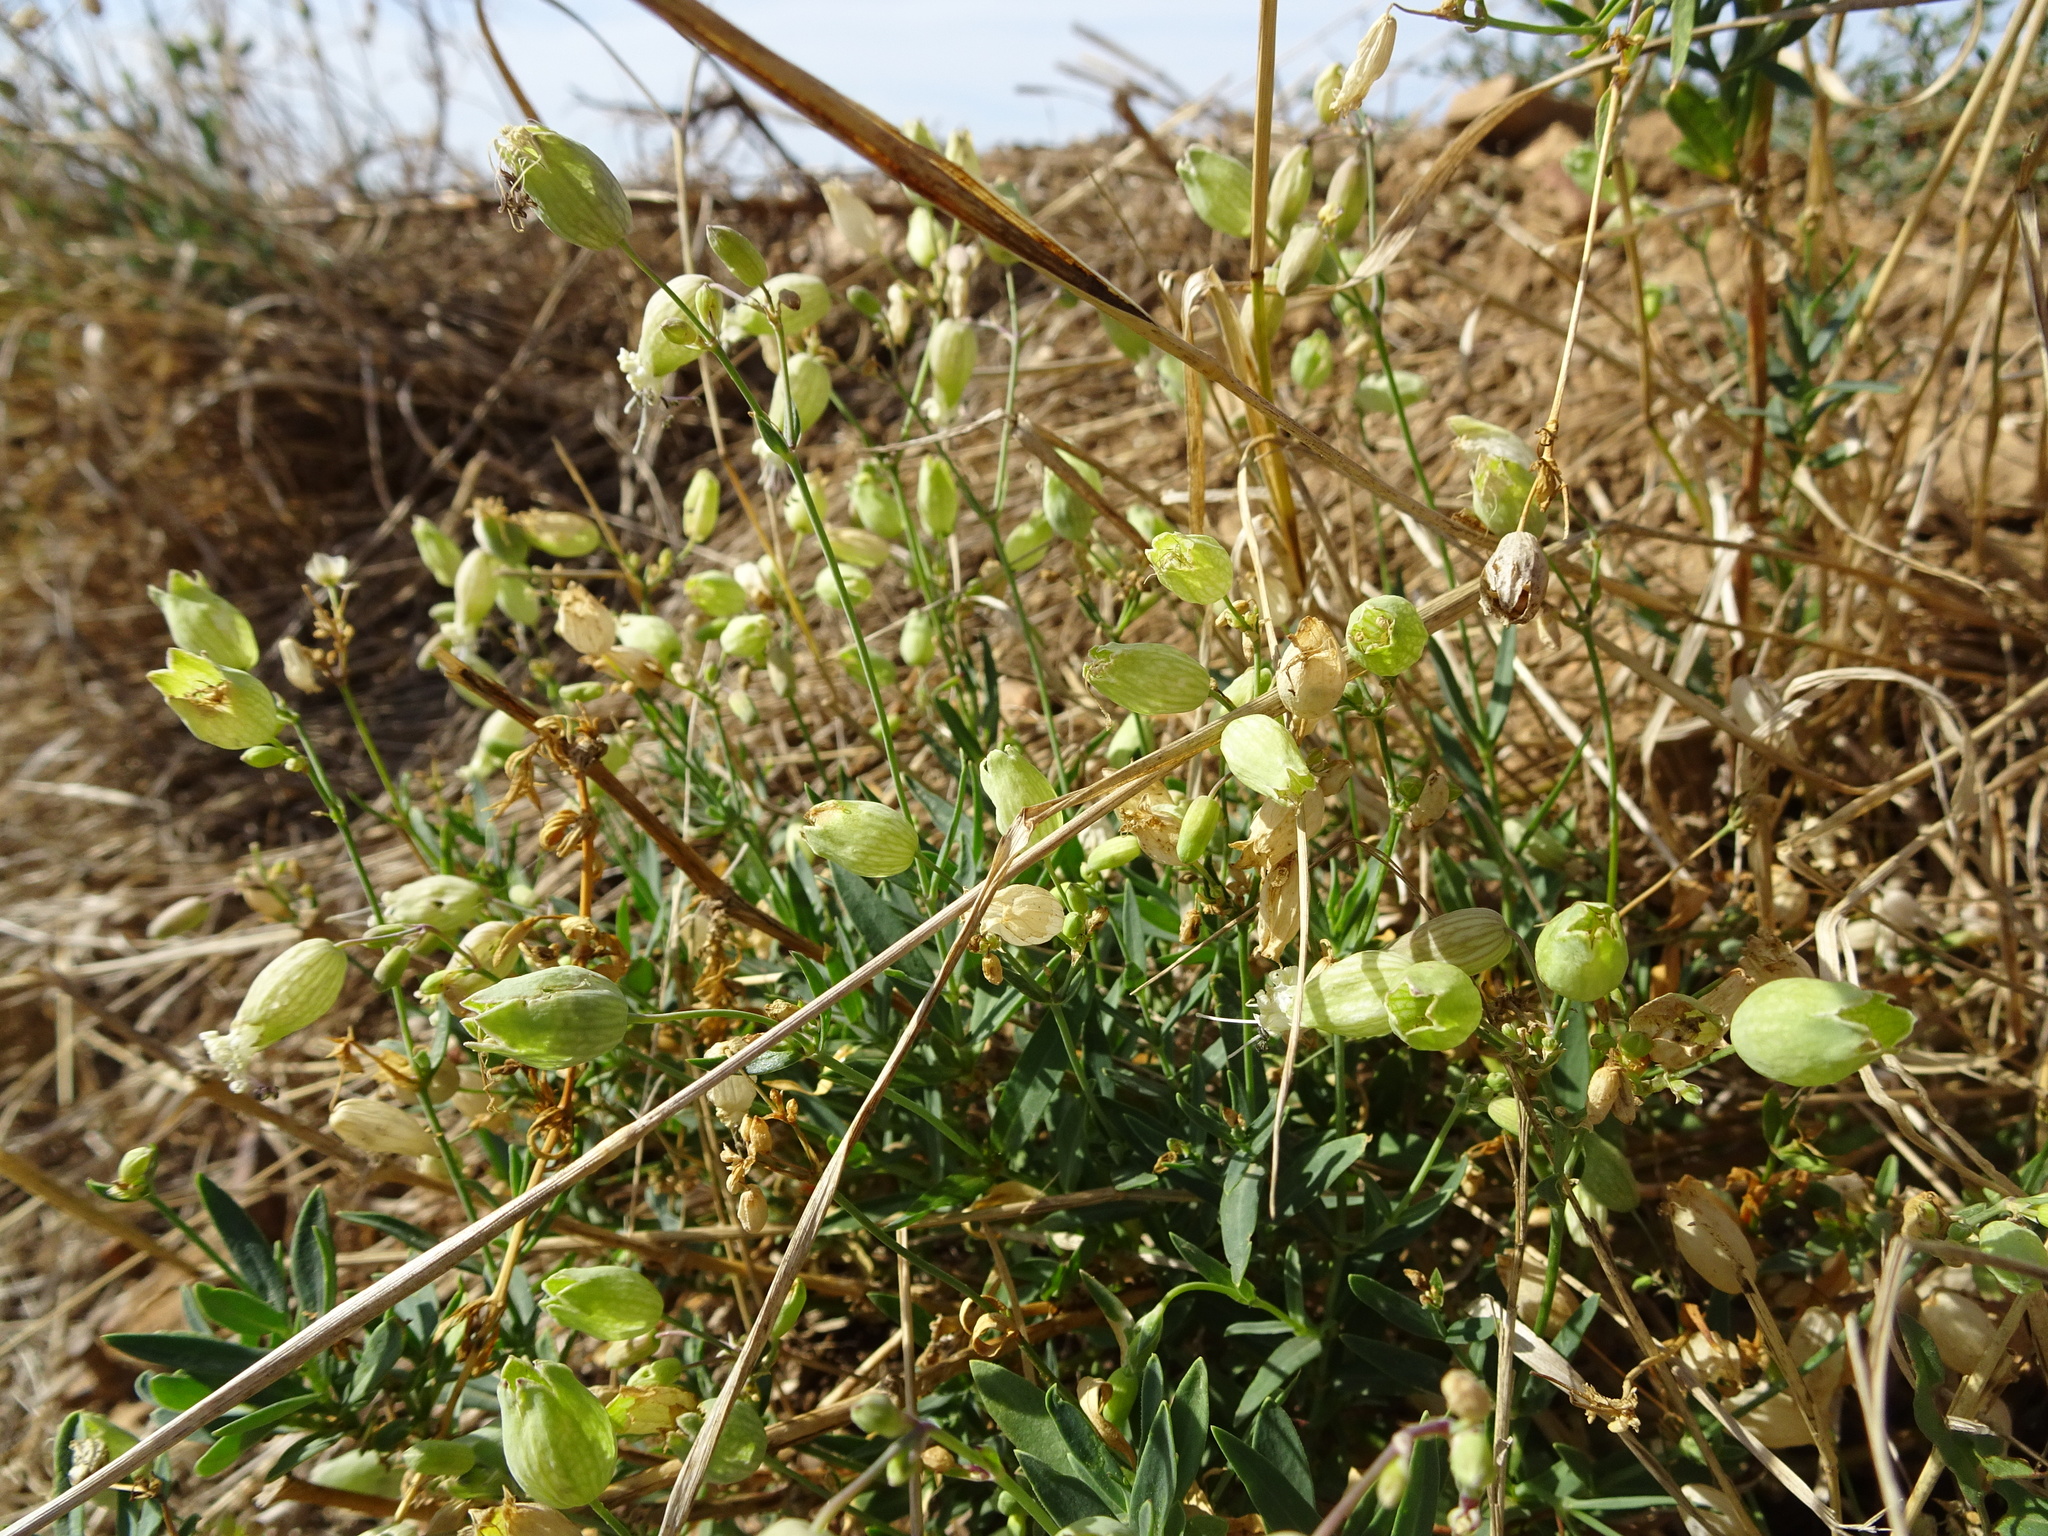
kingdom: Plantae
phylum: Tracheophyta
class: Magnoliopsida
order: Caryophyllales
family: Caryophyllaceae
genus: Silene
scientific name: Silene vulgaris
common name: Bladder campion
